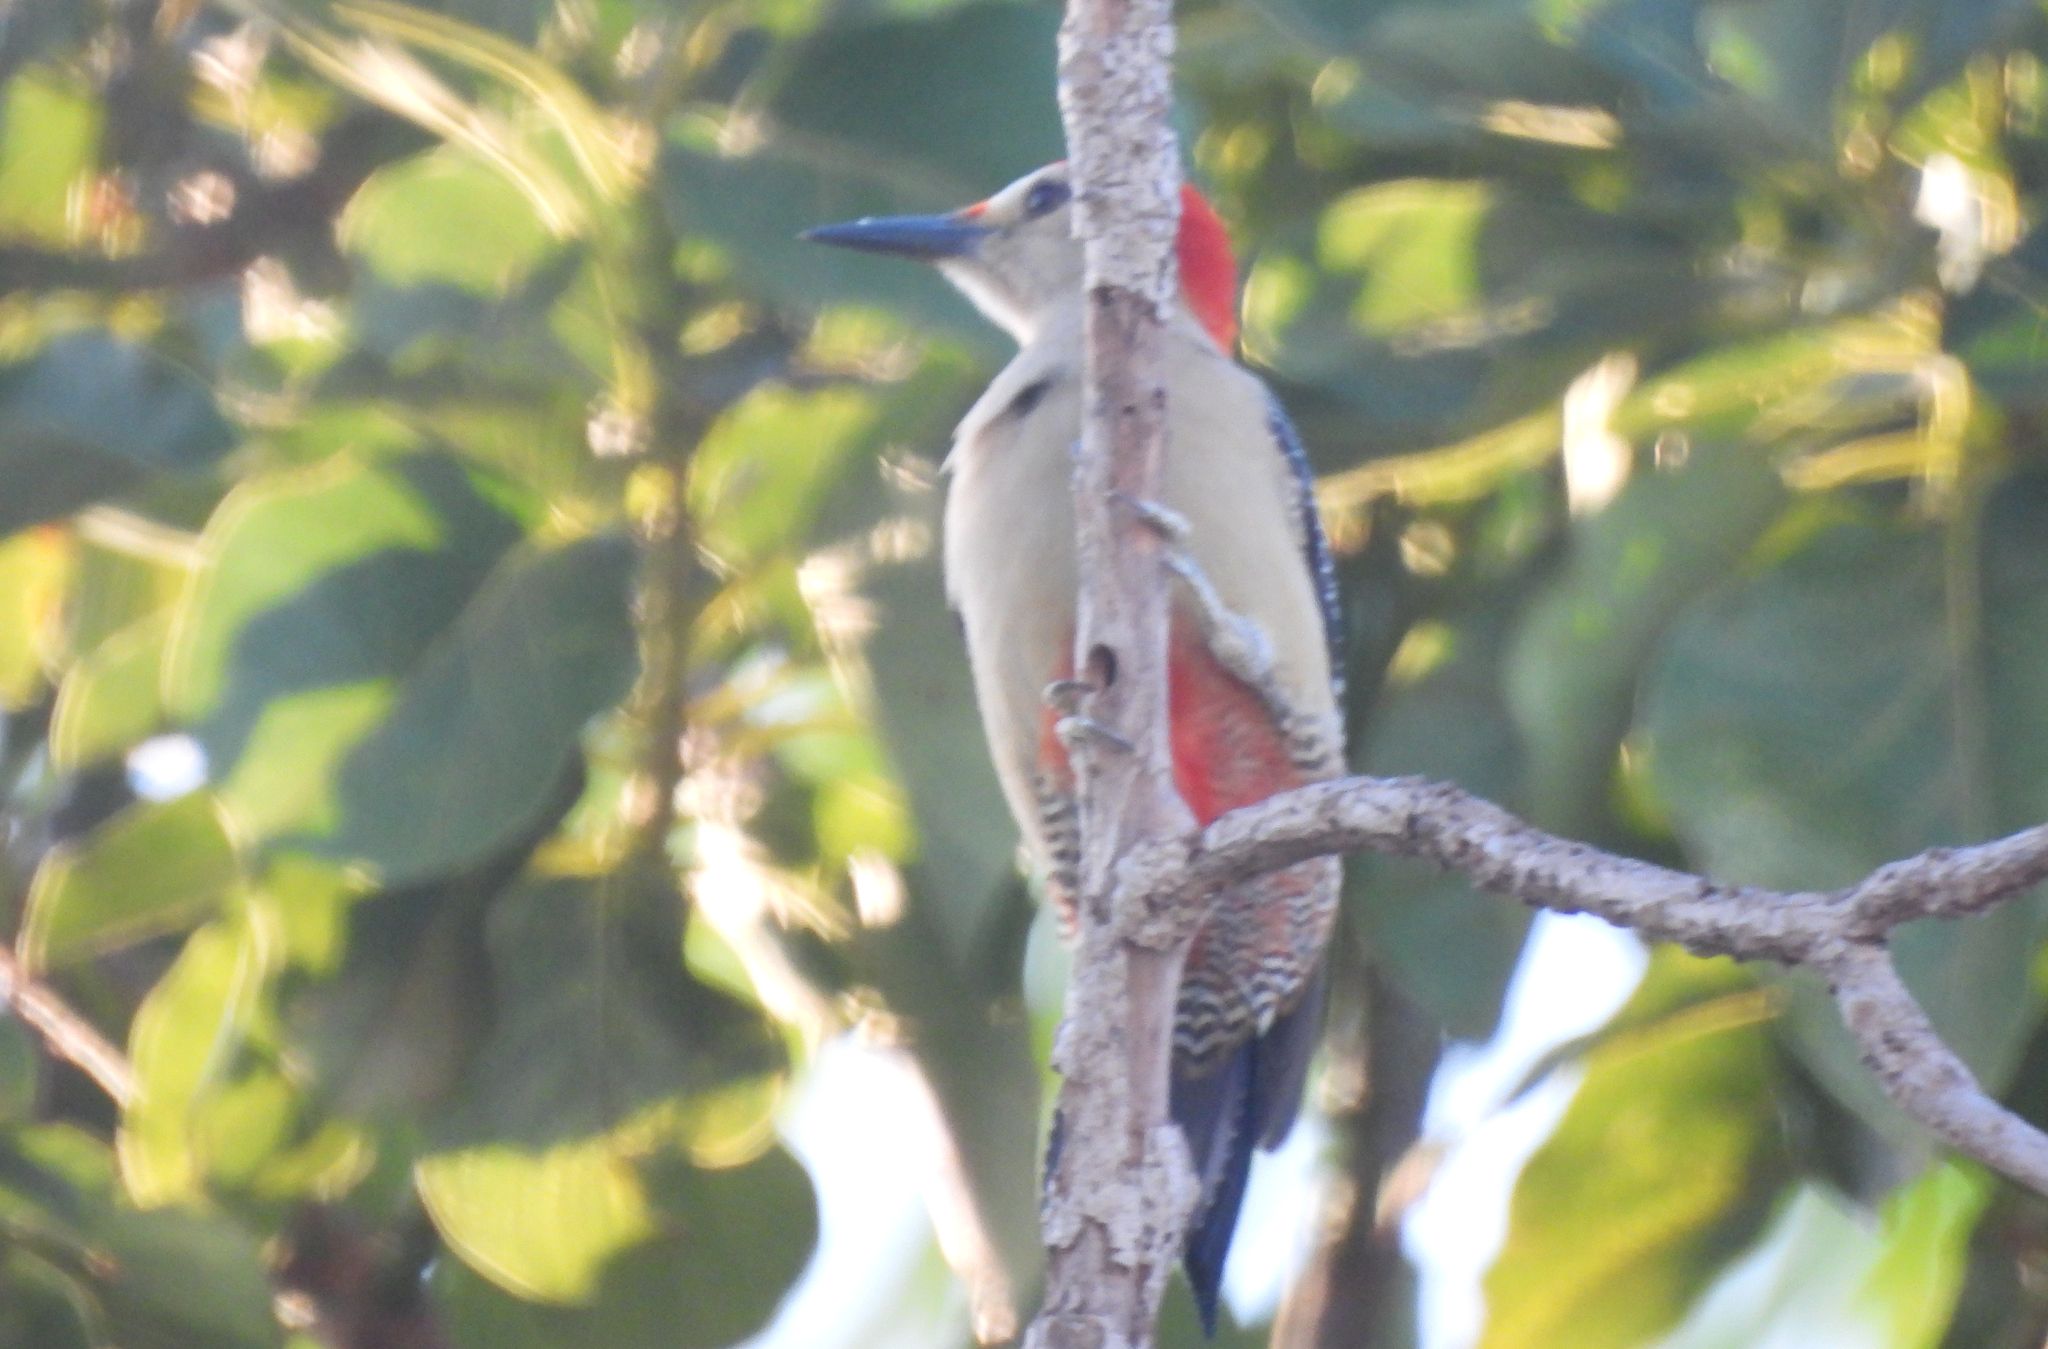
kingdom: Animalia
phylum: Chordata
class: Aves
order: Piciformes
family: Picidae
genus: Melanerpes
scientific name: Melanerpes santacruzi
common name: Velasquez's woodpecker
